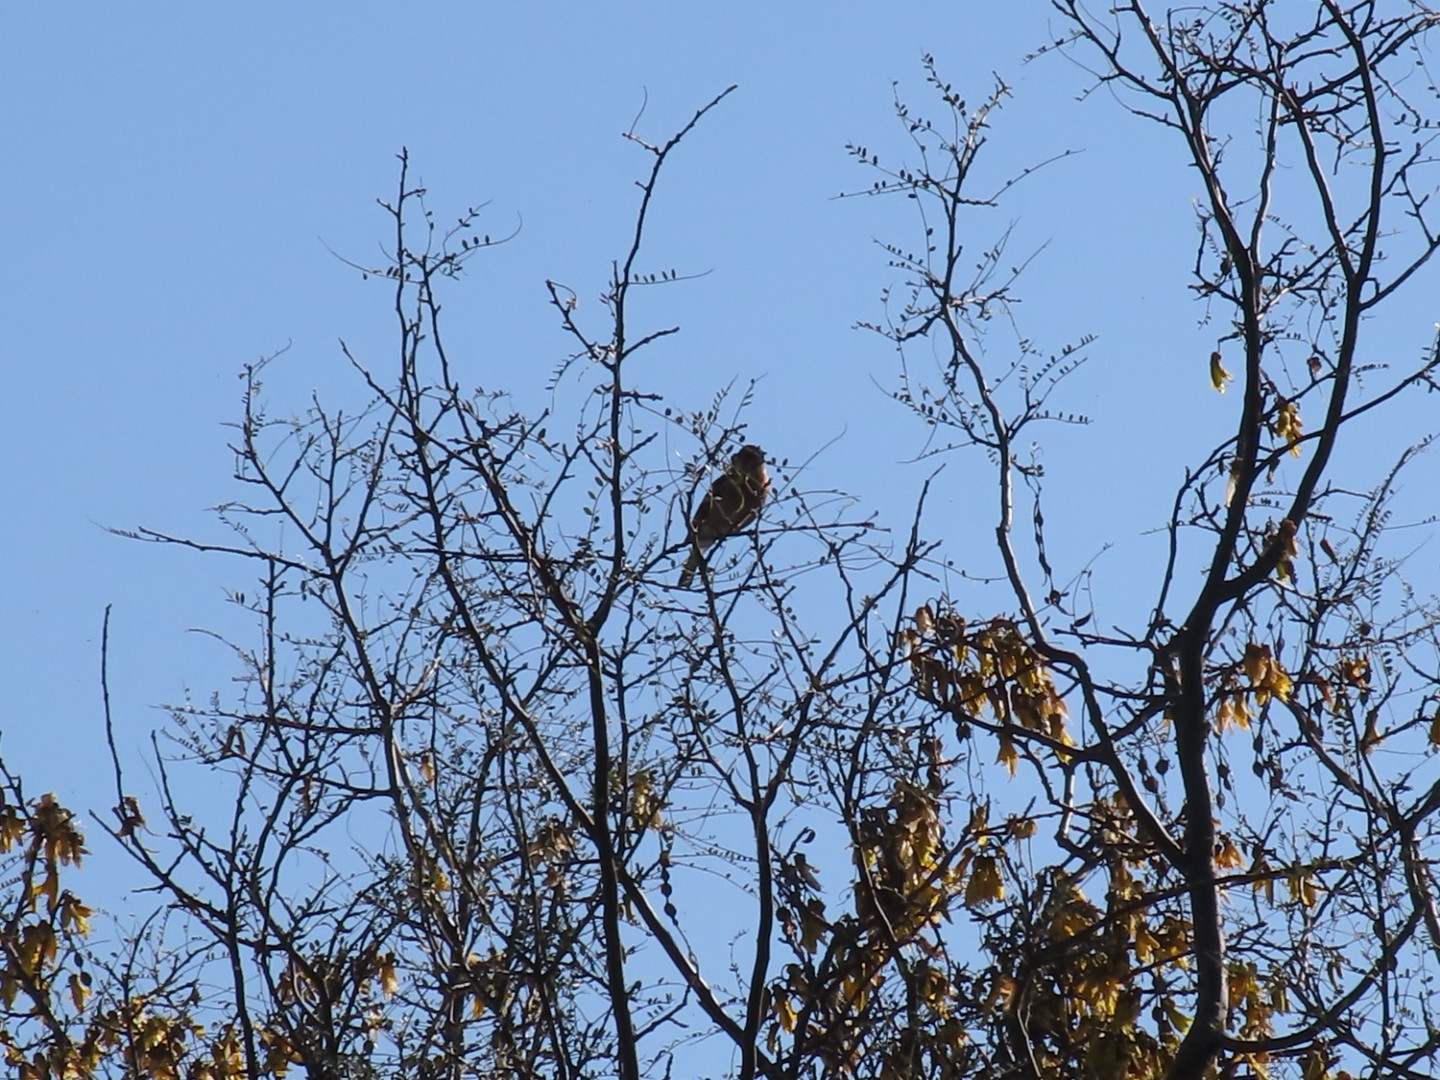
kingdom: Animalia
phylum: Chordata
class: Aves
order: Passeriformes
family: Fringillidae
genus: Fringilla
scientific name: Fringilla coelebs
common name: Common chaffinch
